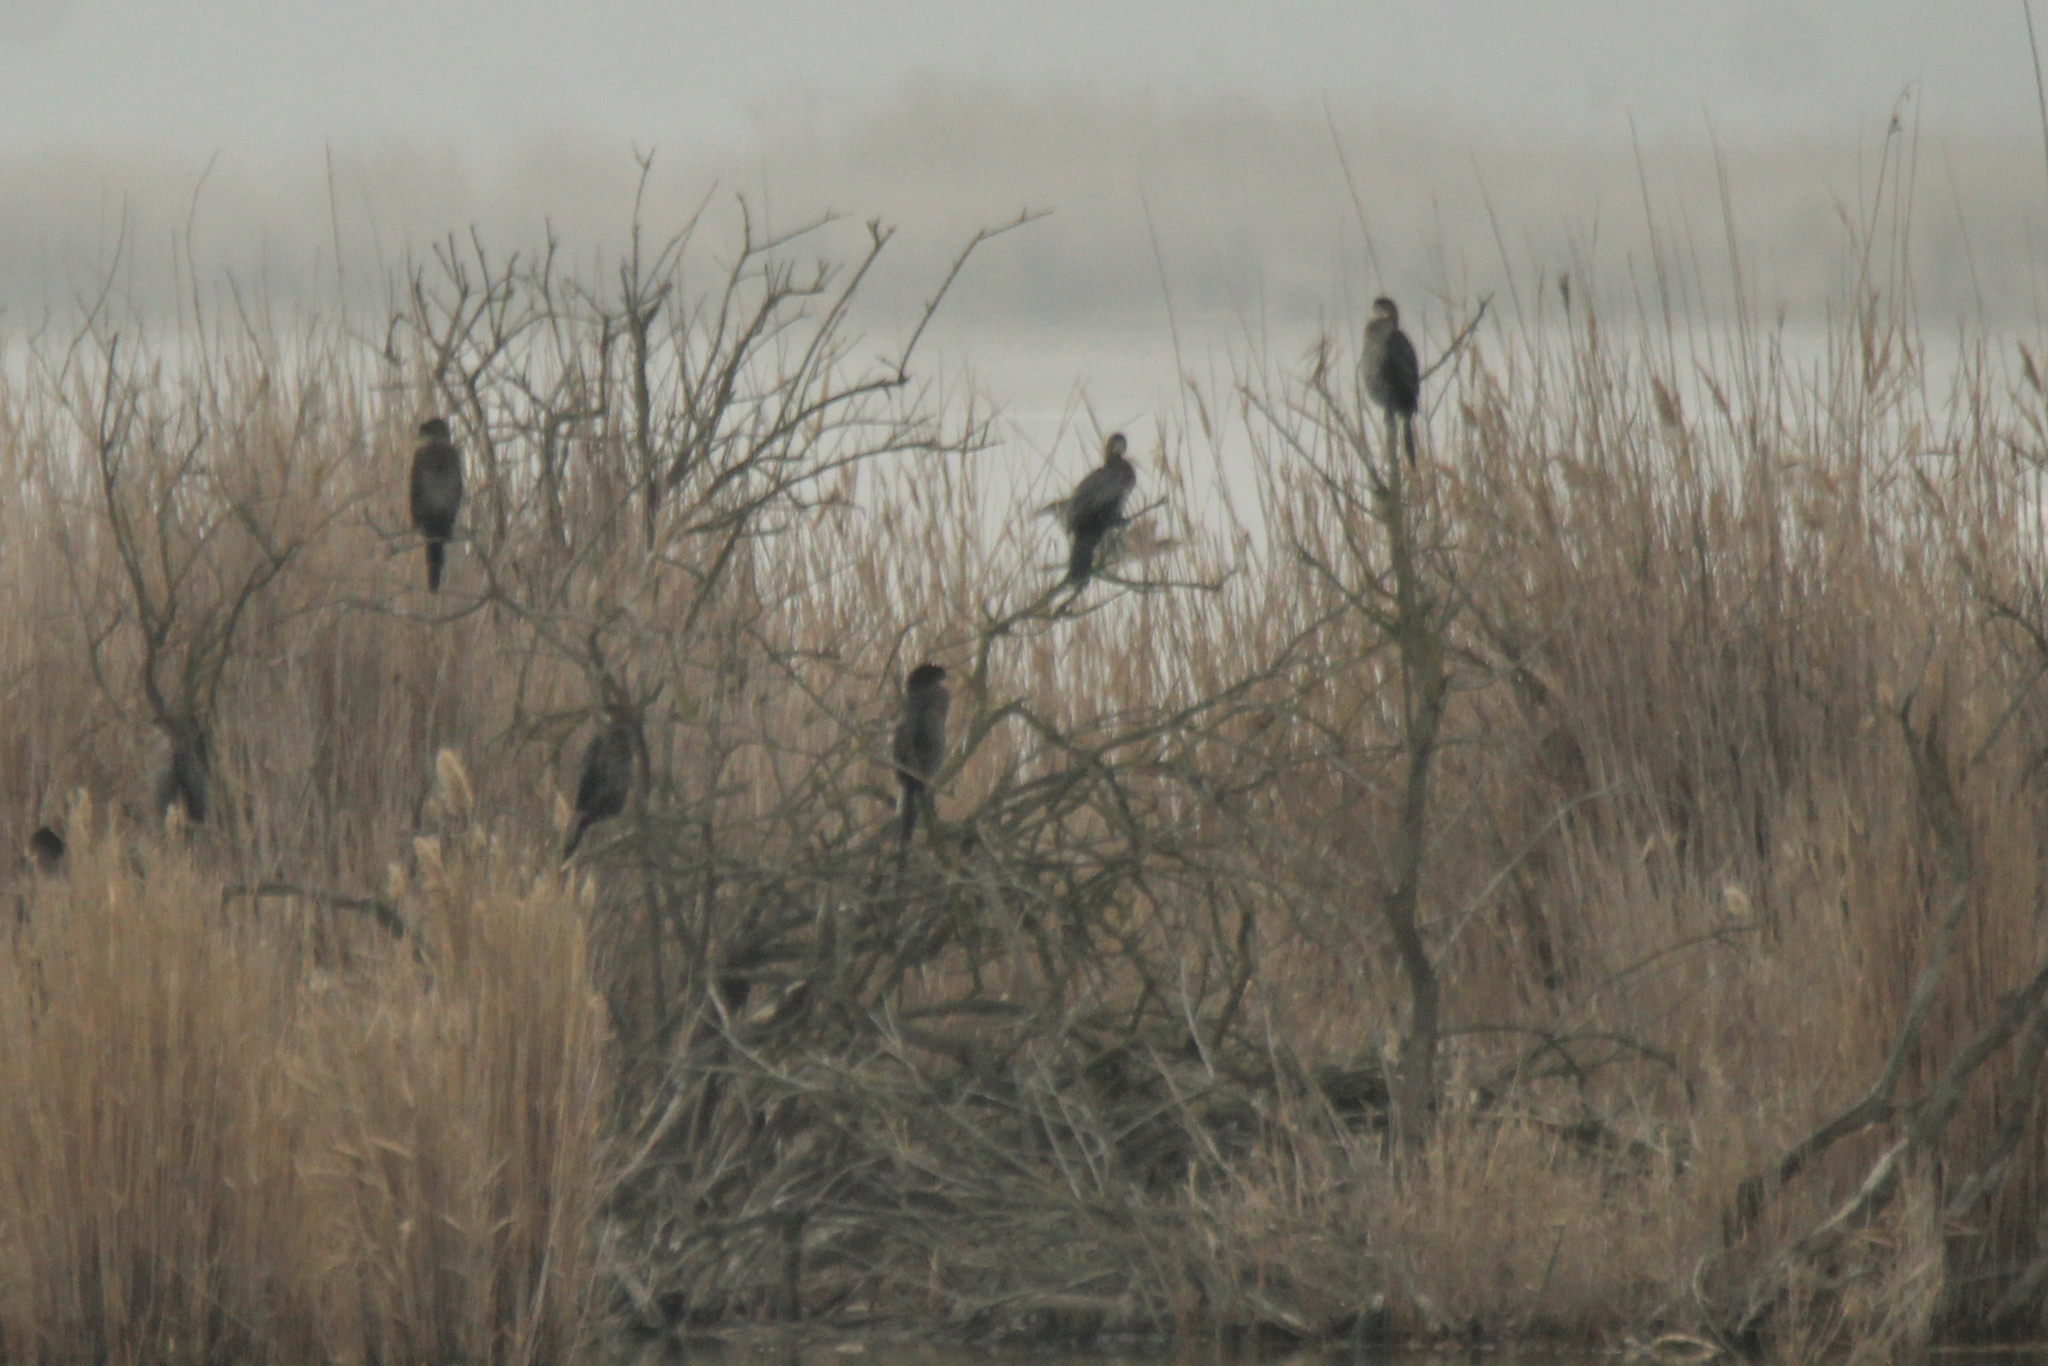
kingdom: Animalia
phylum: Chordata
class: Aves
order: Suliformes
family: Phalacrocoracidae
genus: Microcarbo
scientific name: Microcarbo pygmaeus
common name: Pygmy cormorant
